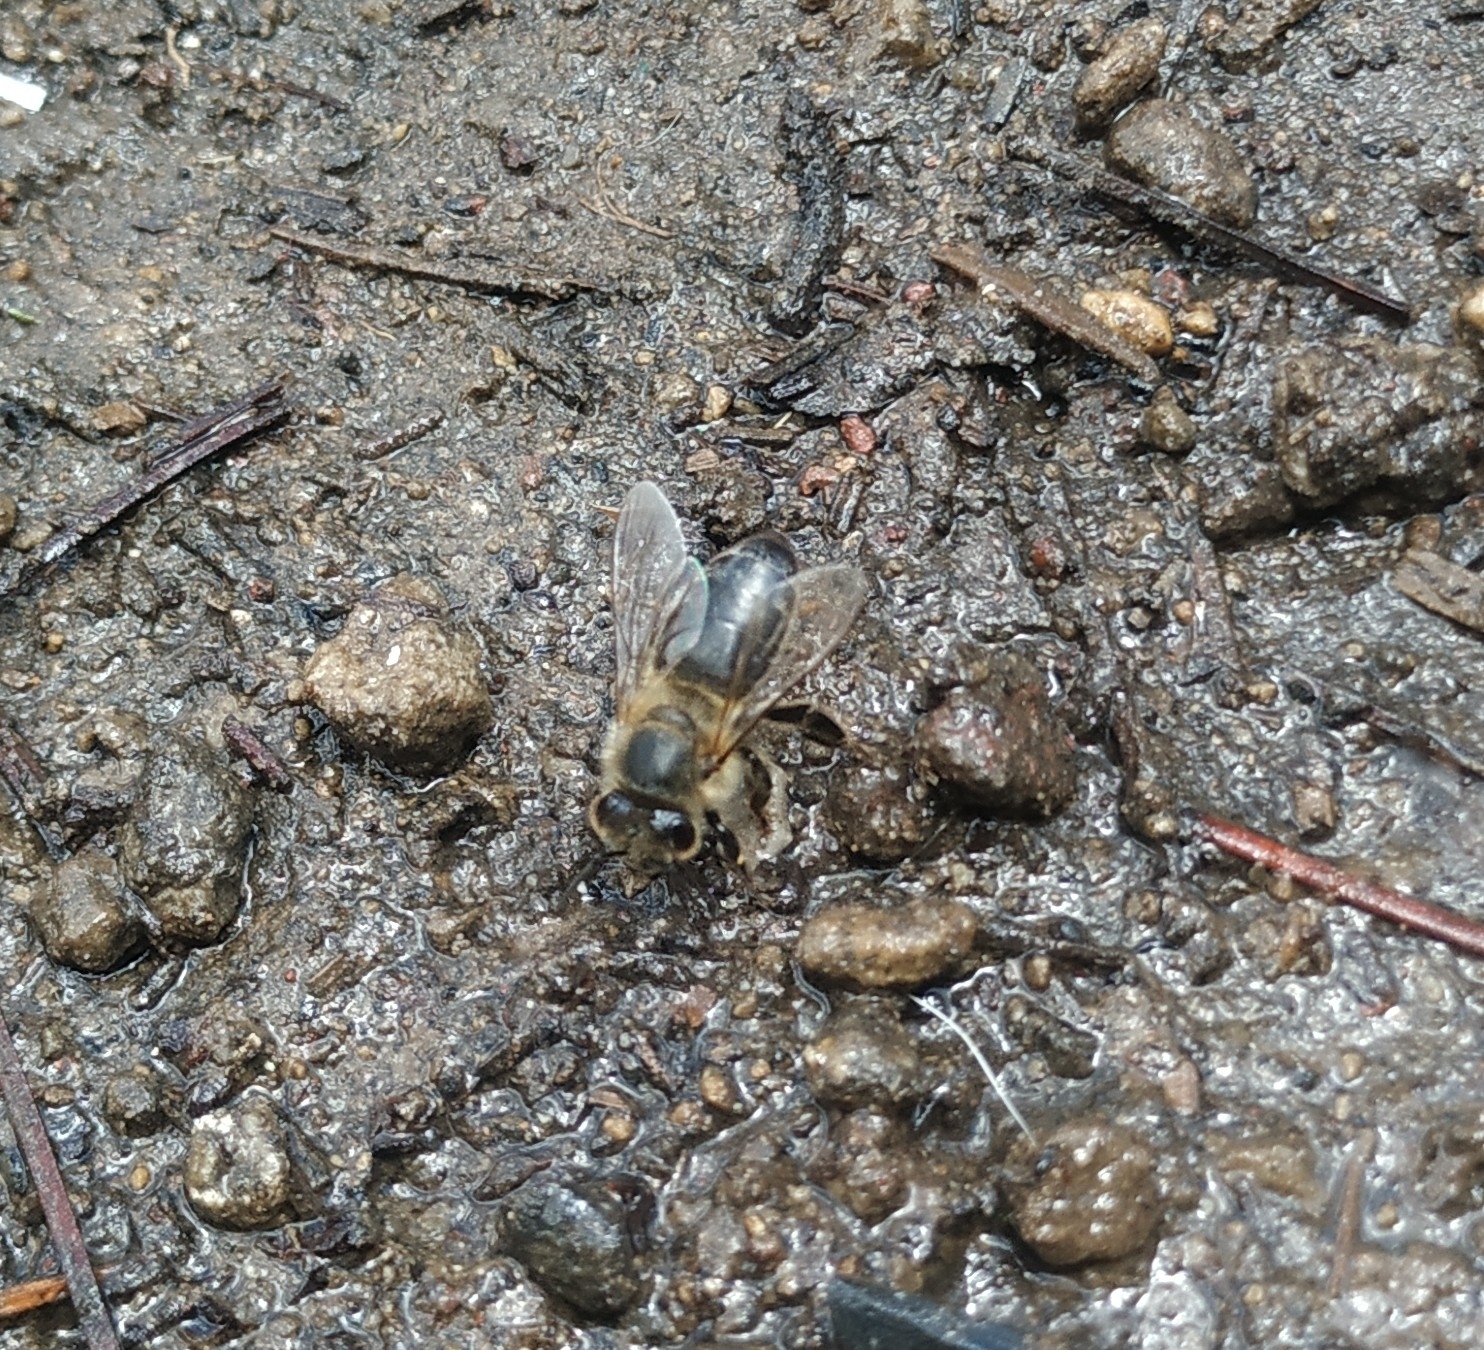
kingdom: Animalia
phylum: Arthropoda
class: Insecta
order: Hymenoptera
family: Apidae
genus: Apis
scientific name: Apis mellifera
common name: Honey bee
